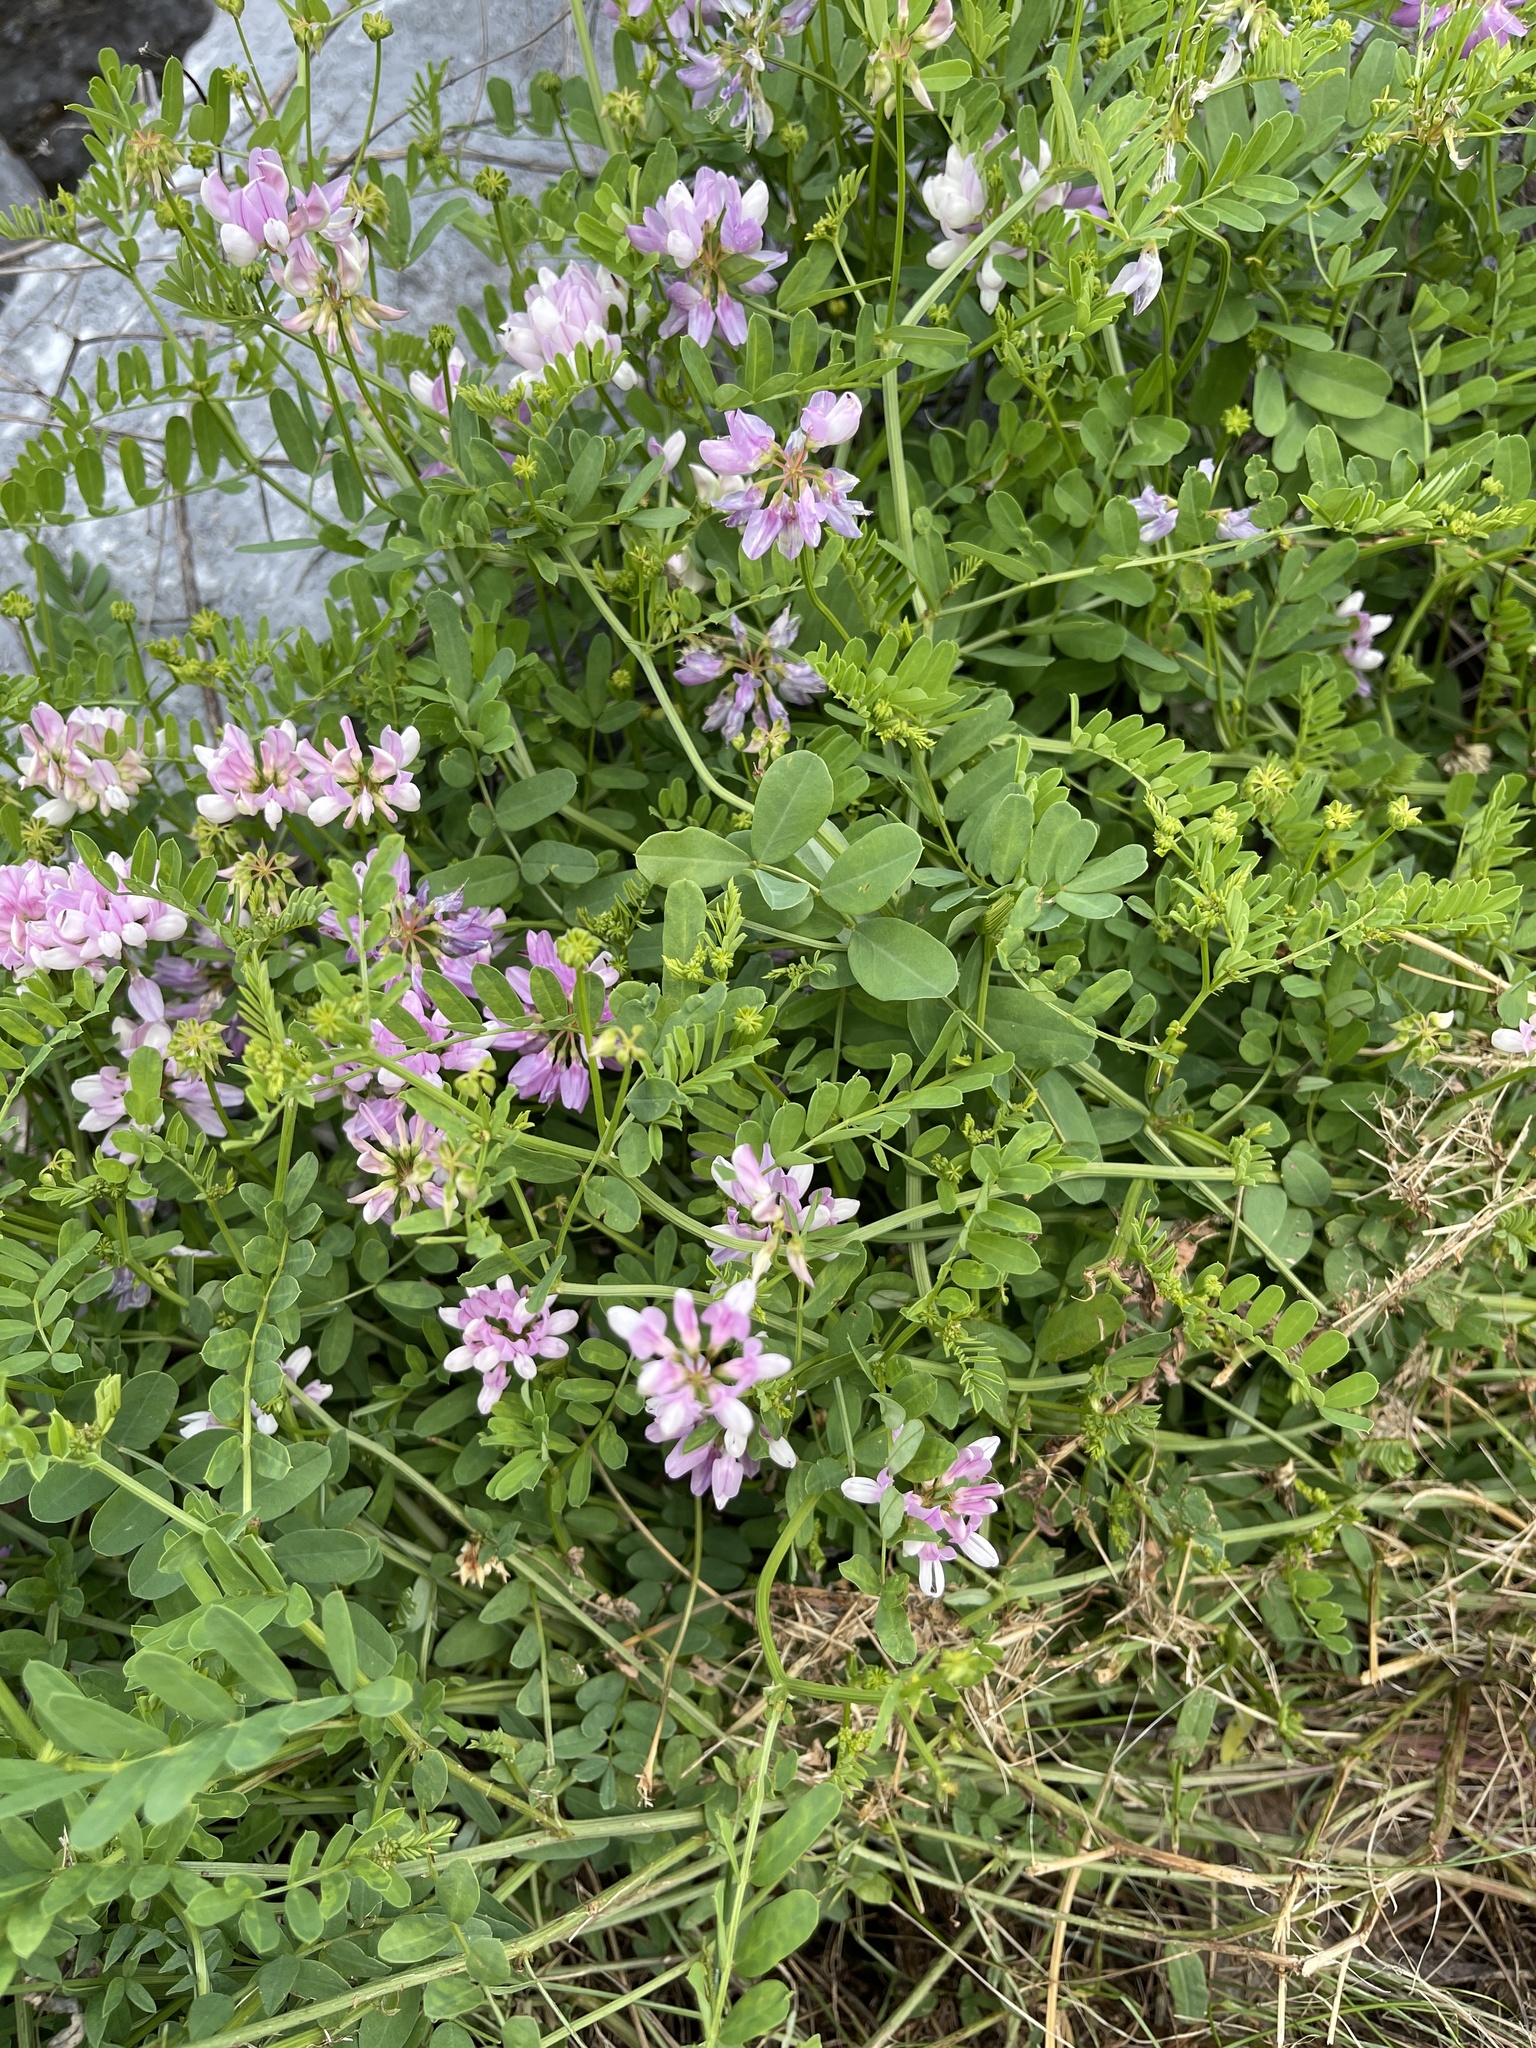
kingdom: Plantae
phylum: Tracheophyta
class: Magnoliopsida
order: Fabales
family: Fabaceae
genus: Coronilla
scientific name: Coronilla varia
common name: Crownvetch
